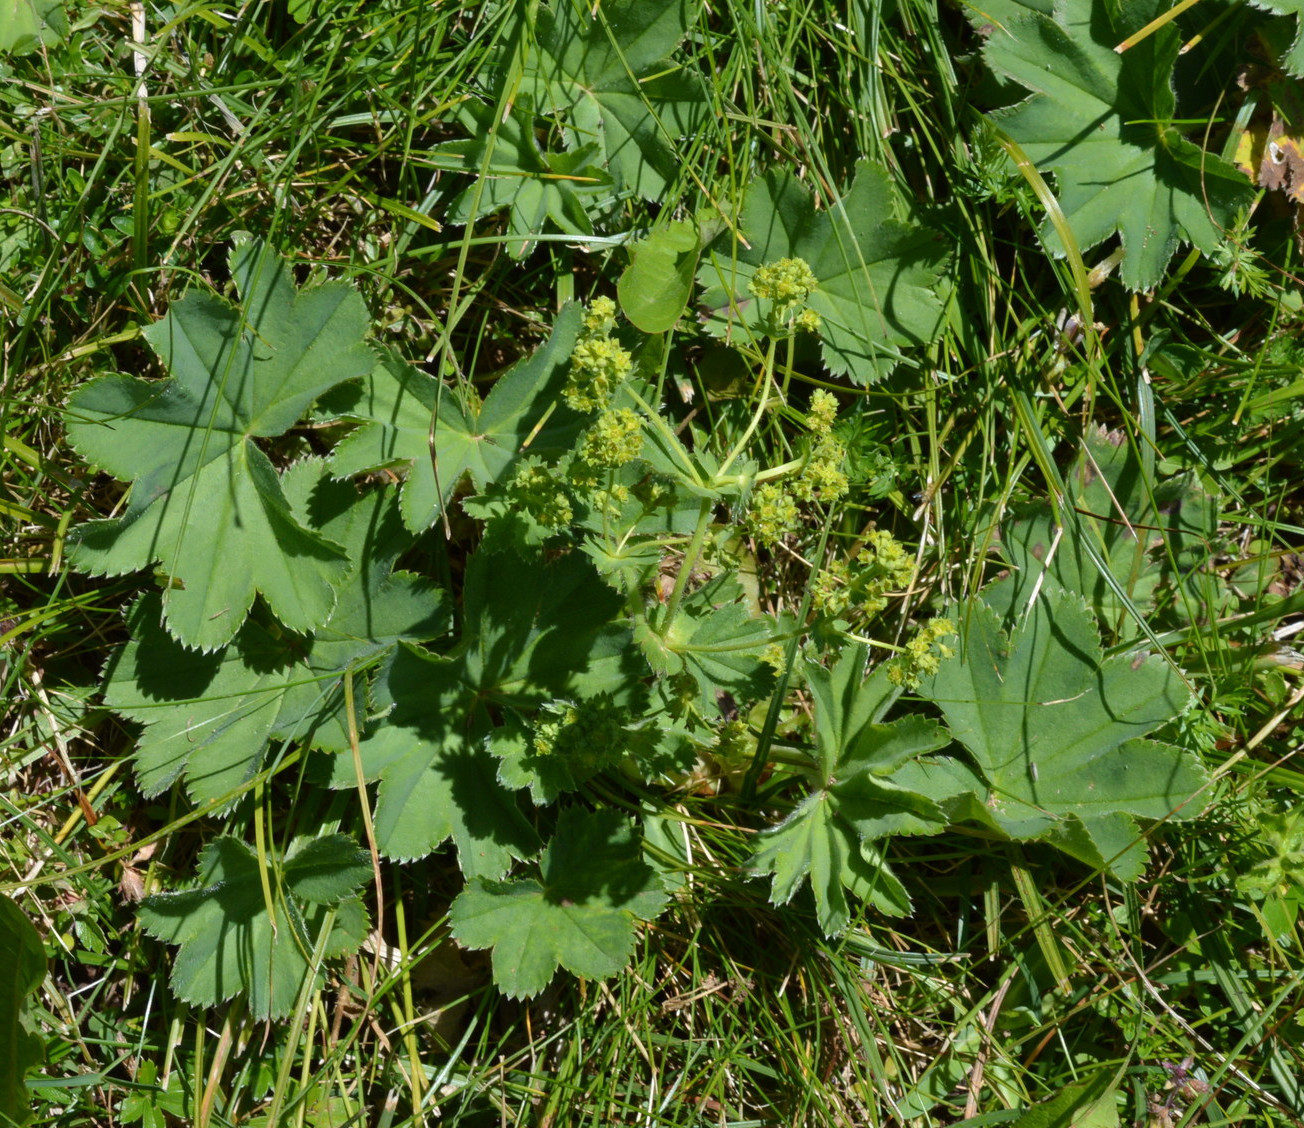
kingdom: Plantae
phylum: Tracheophyta
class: Magnoliopsida
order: Rosales
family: Rosaceae
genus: Alchemilla
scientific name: Alchemilla vulgaris
